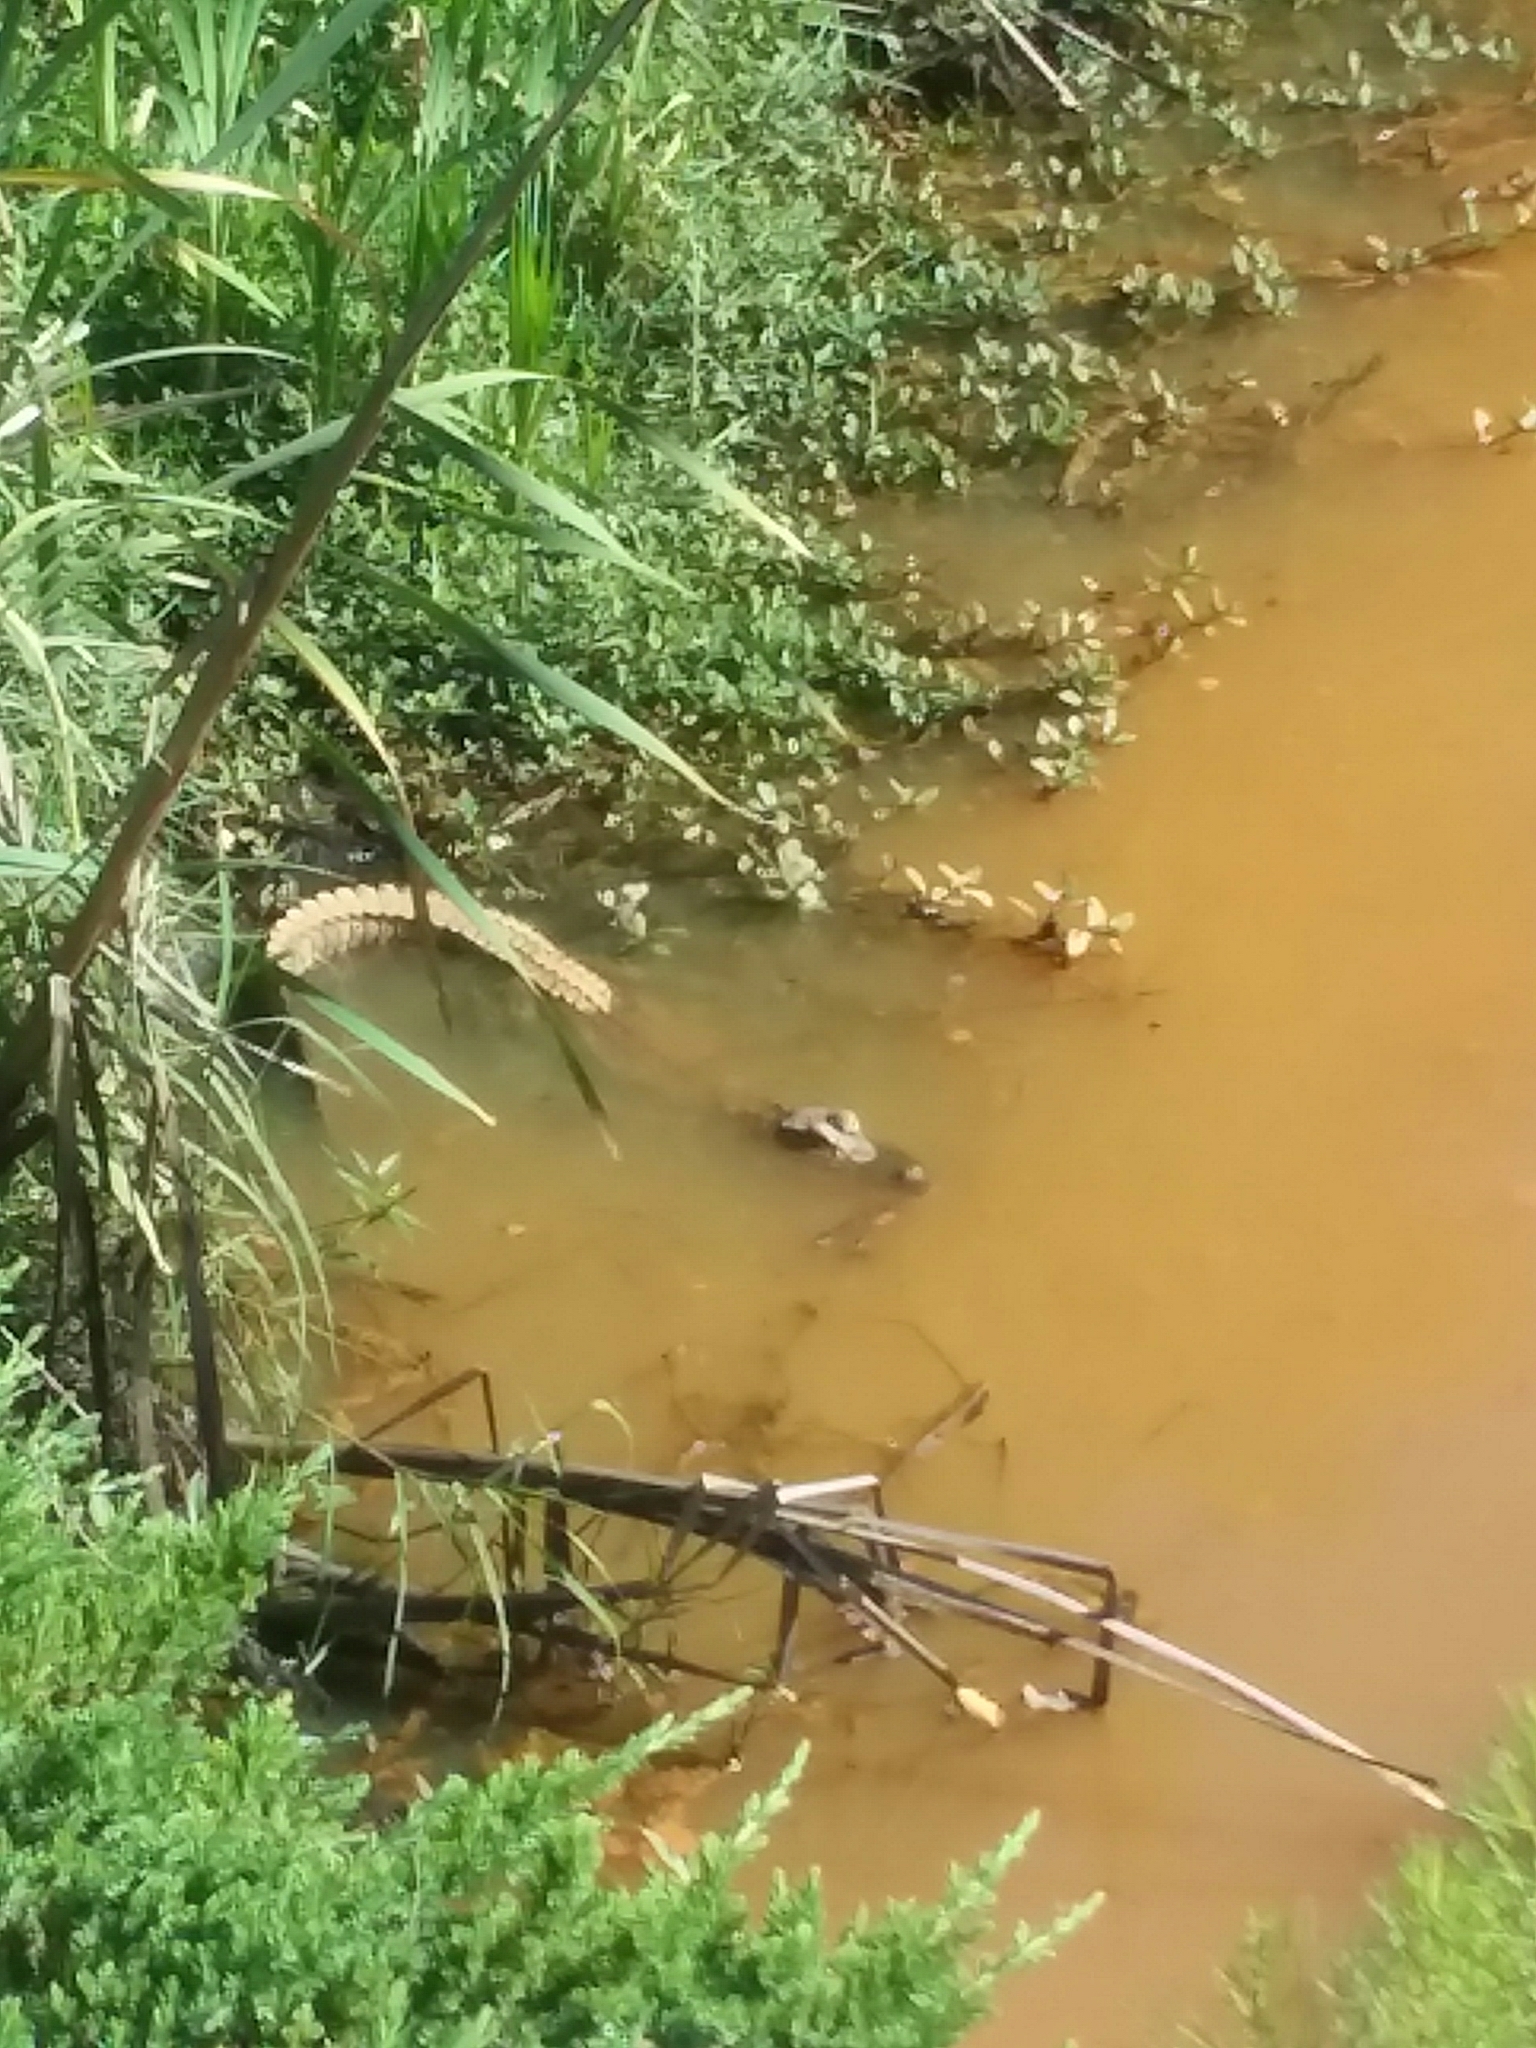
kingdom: Animalia
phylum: Chordata
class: Crocodylia
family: Alligatoridae
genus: Alligator
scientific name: Alligator mississippiensis
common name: American alligator
